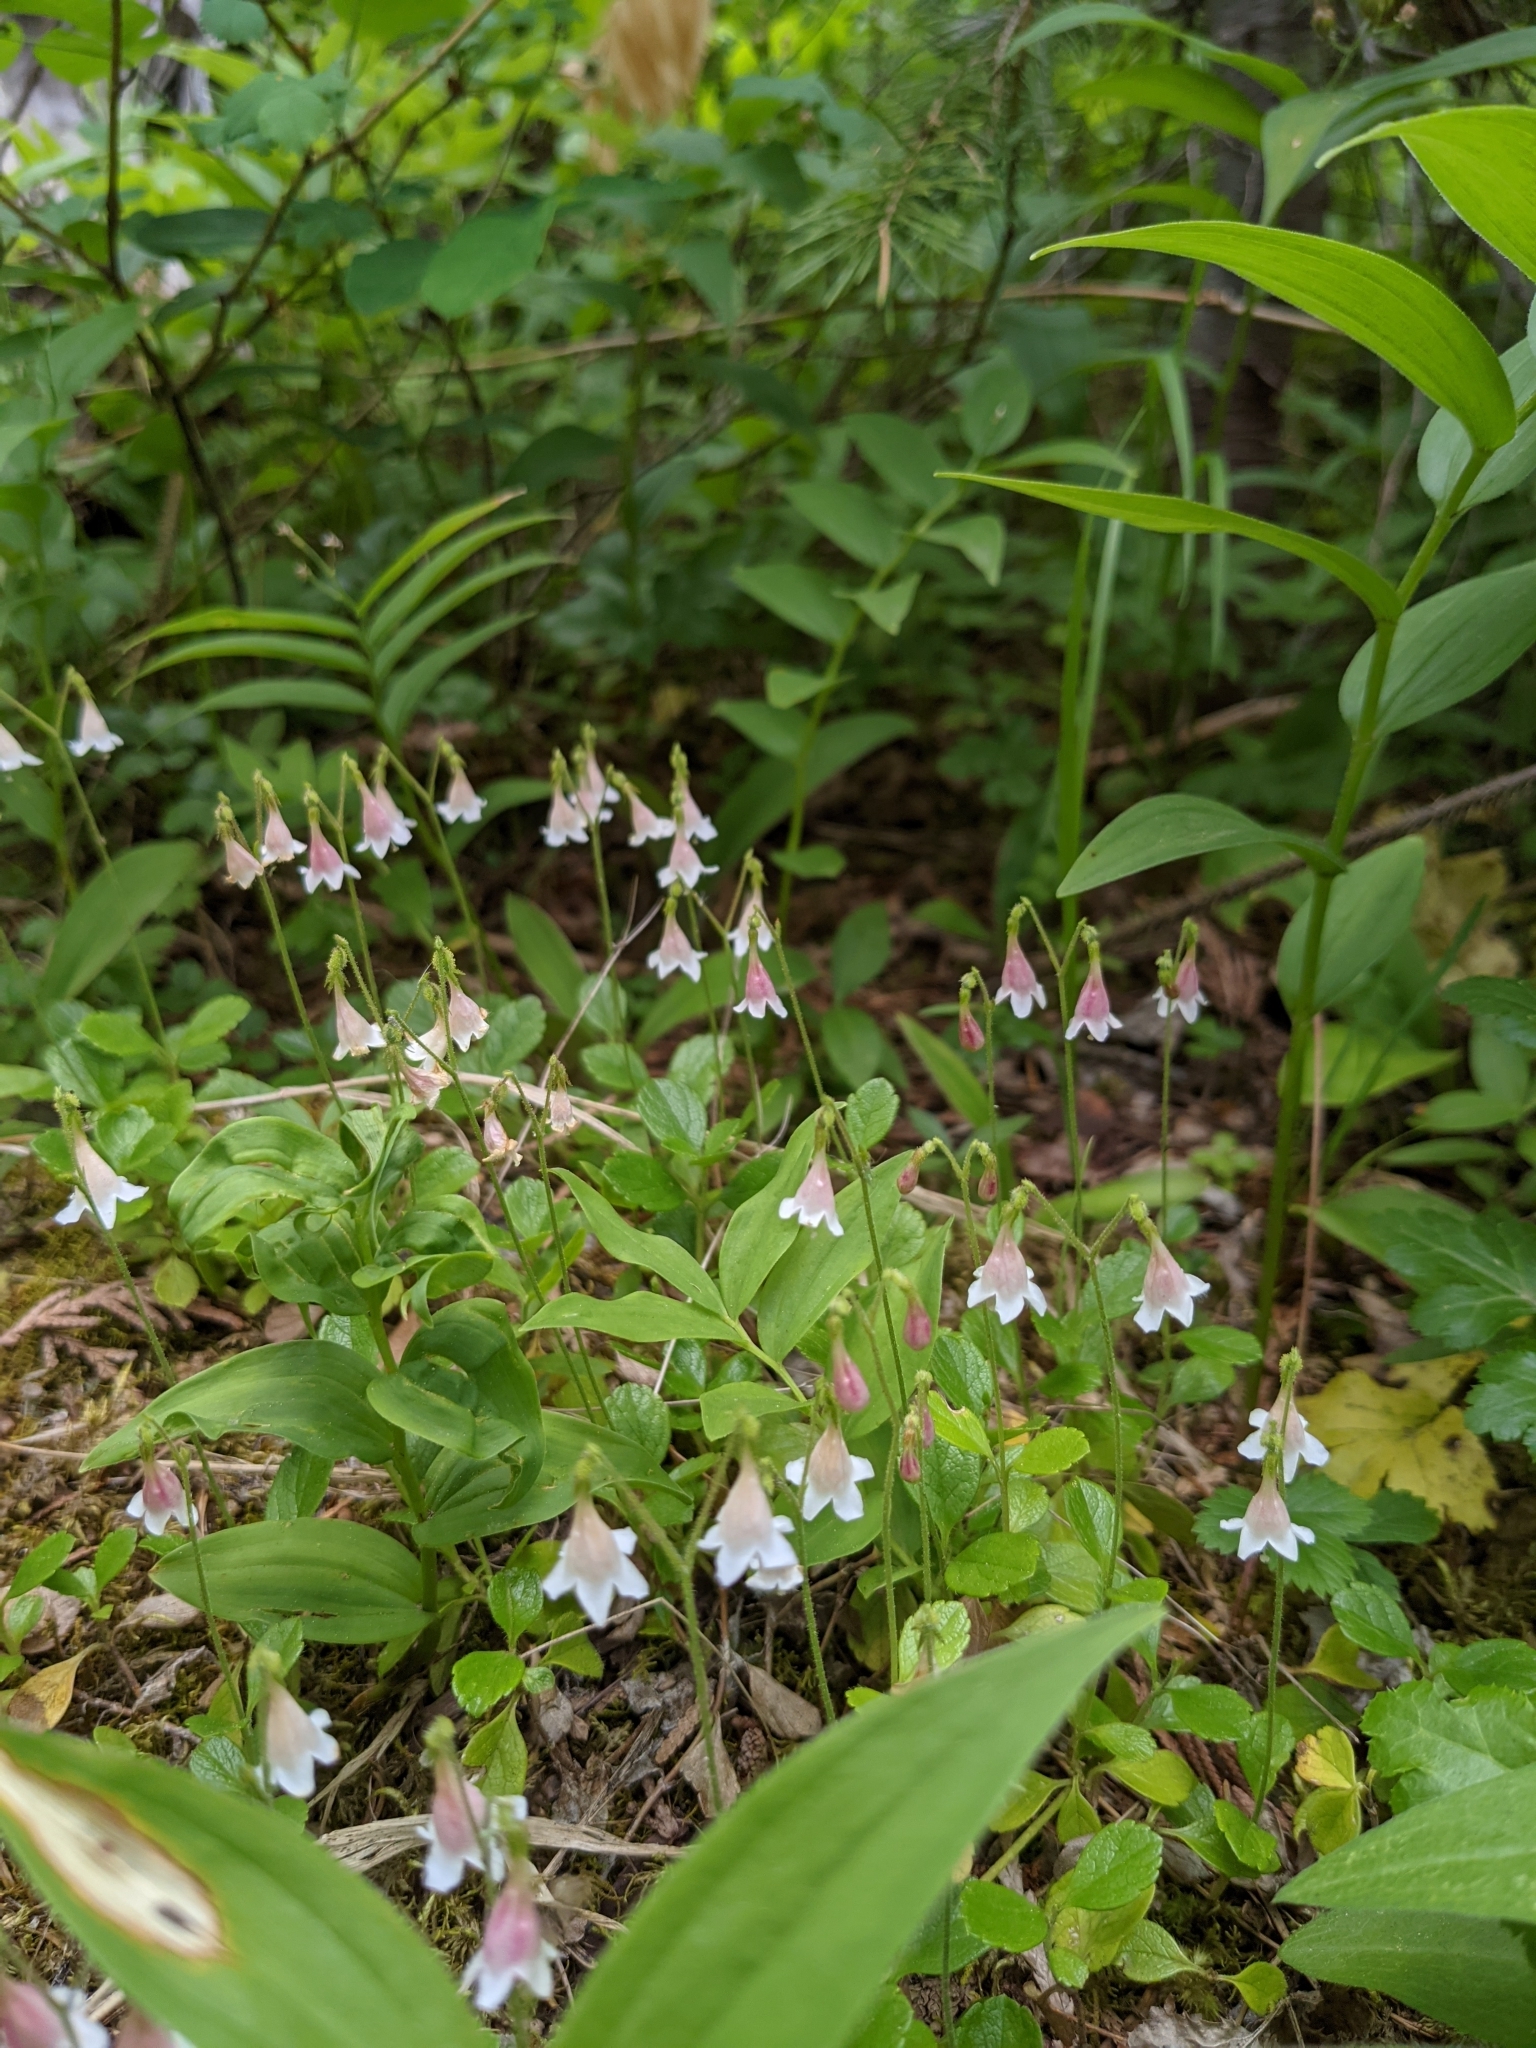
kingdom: Plantae
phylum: Tracheophyta
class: Magnoliopsida
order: Dipsacales
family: Caprifoliaceae
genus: Linnaea
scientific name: Linnaea borealis
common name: Twinflower
